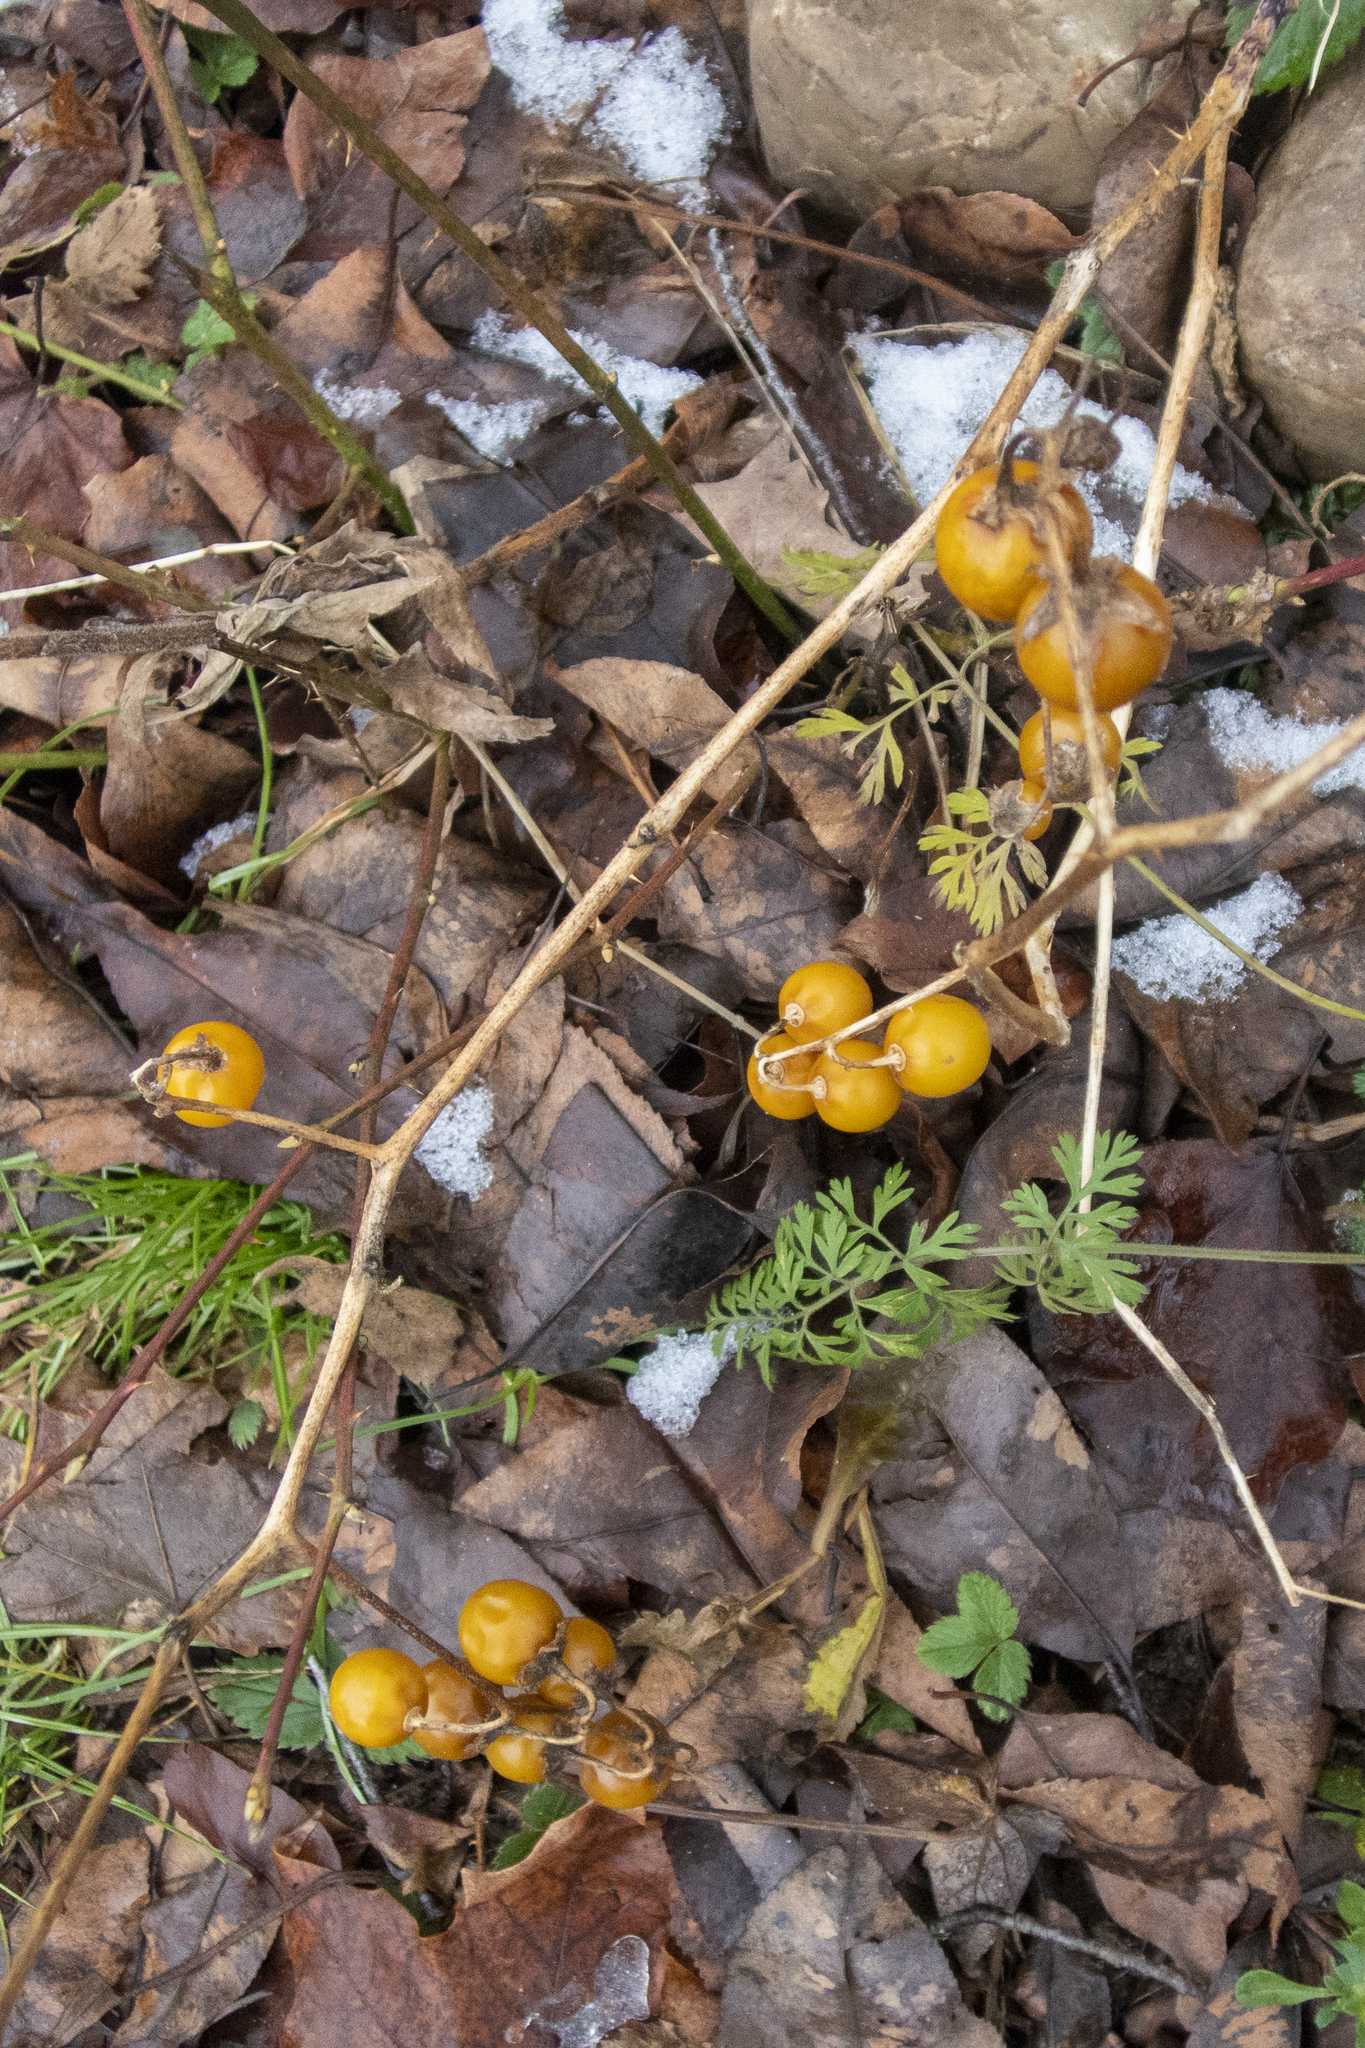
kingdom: Plantae
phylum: Tracheophyta
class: Magnoliopsida
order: Solanales
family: Solanaceae
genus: Solanum
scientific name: Solanum carolinense
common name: Horse-nettle
